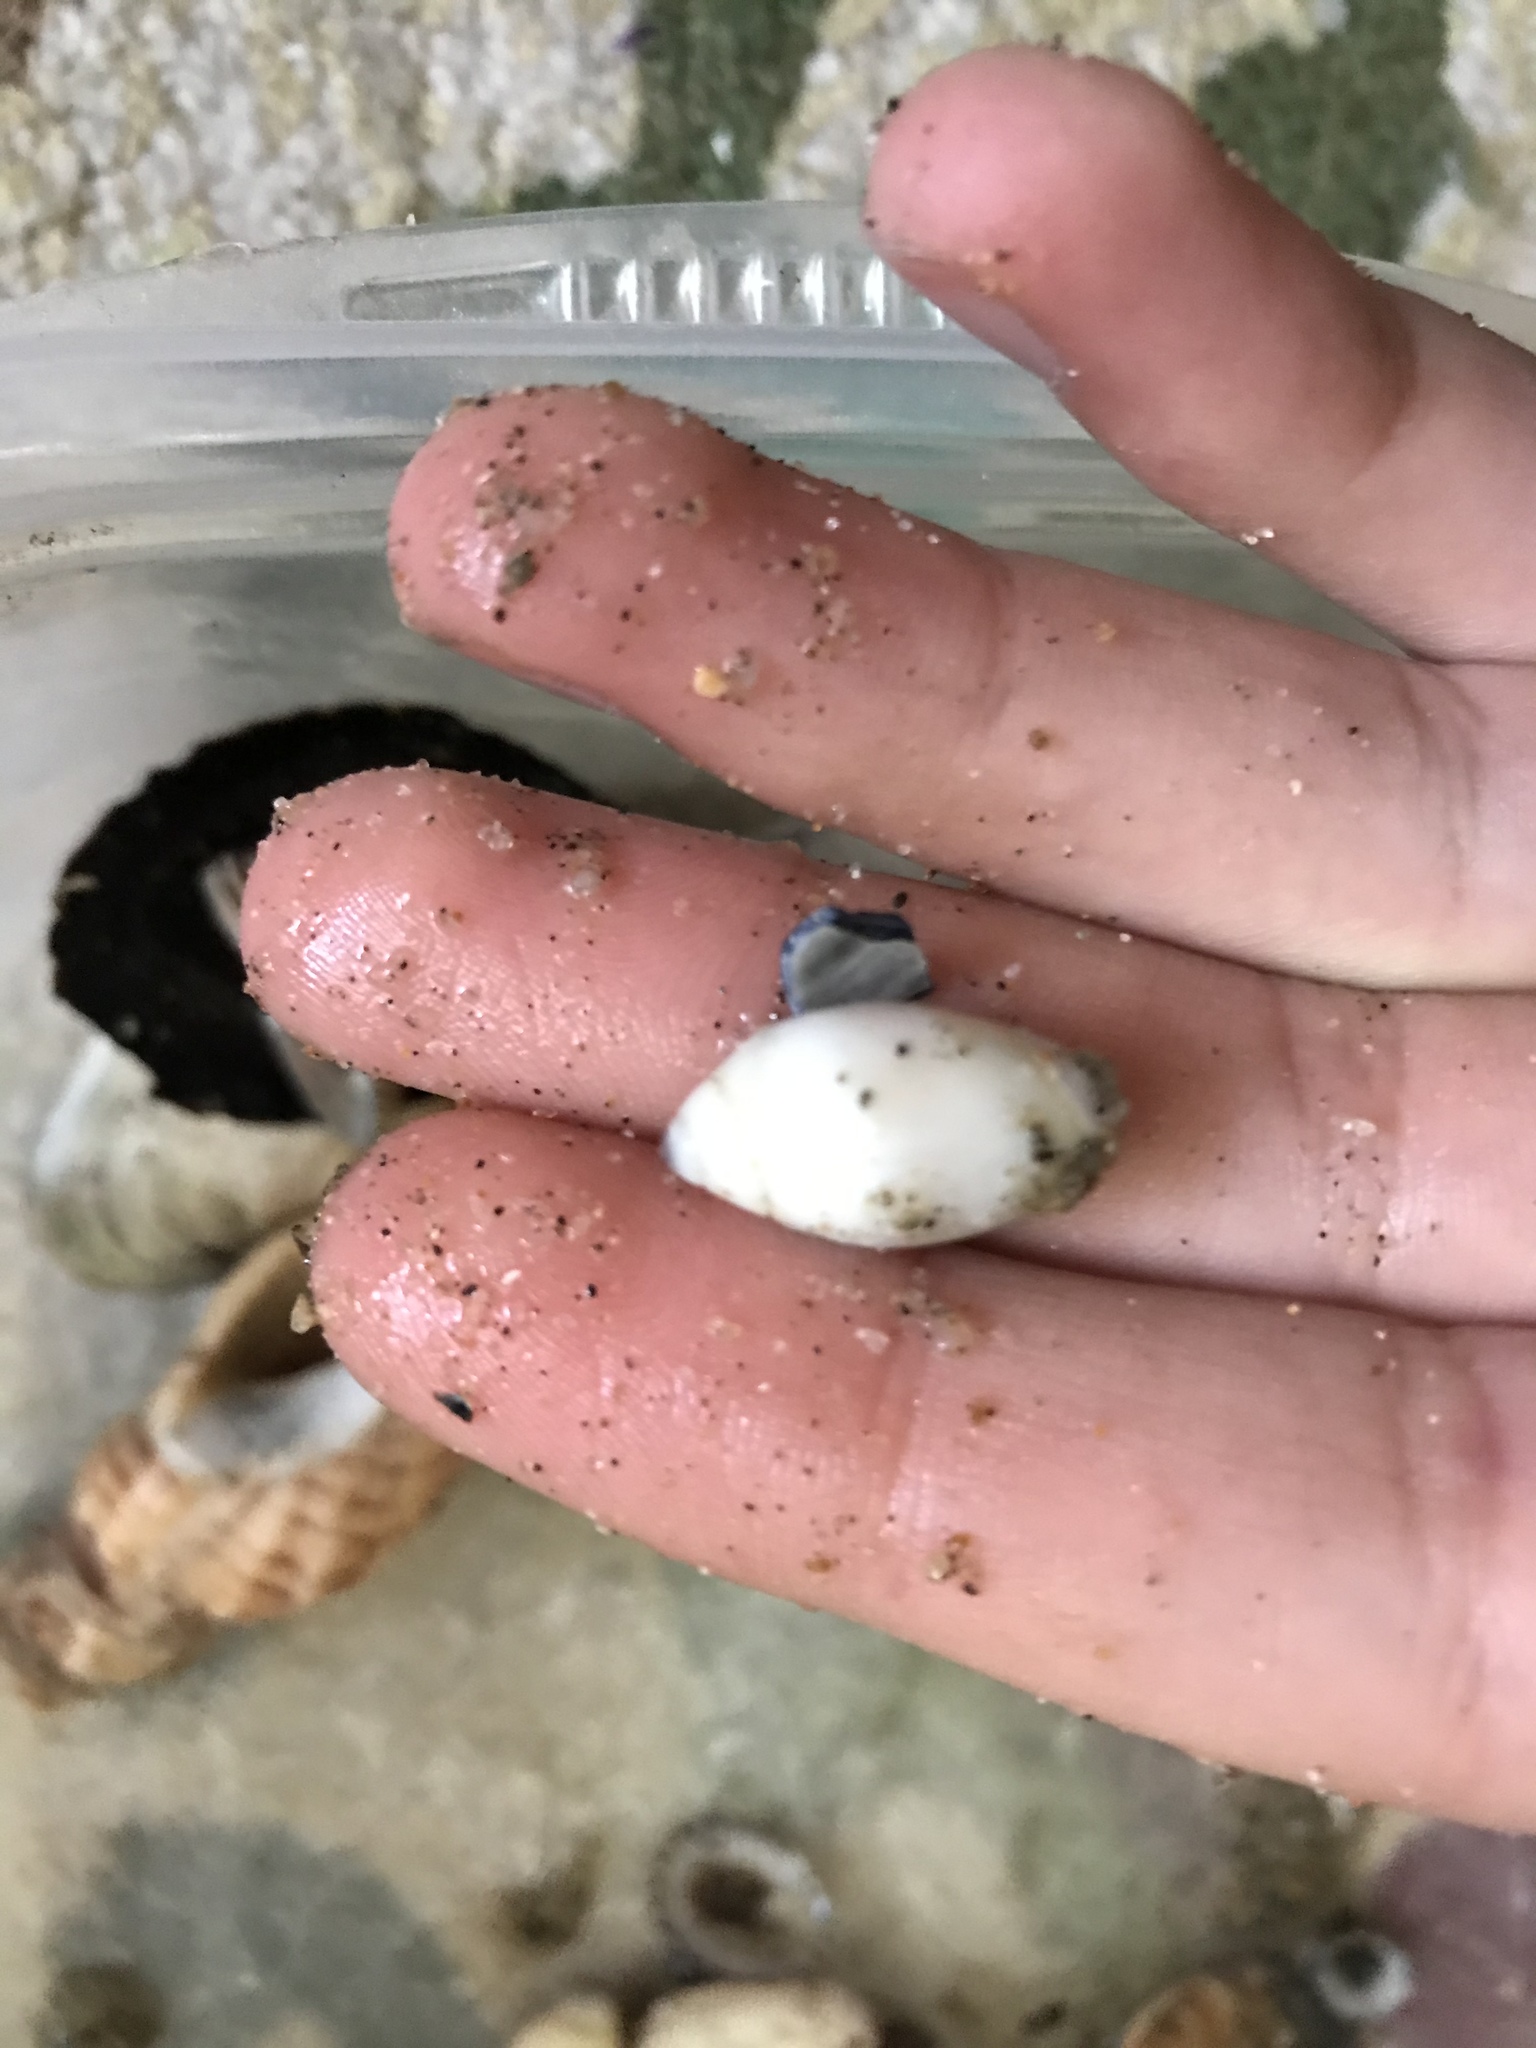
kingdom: Animalia
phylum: Mollusca
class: Gastropoda
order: Neogastropoda
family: Olividae
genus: Callianax
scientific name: Callianax biplicata
